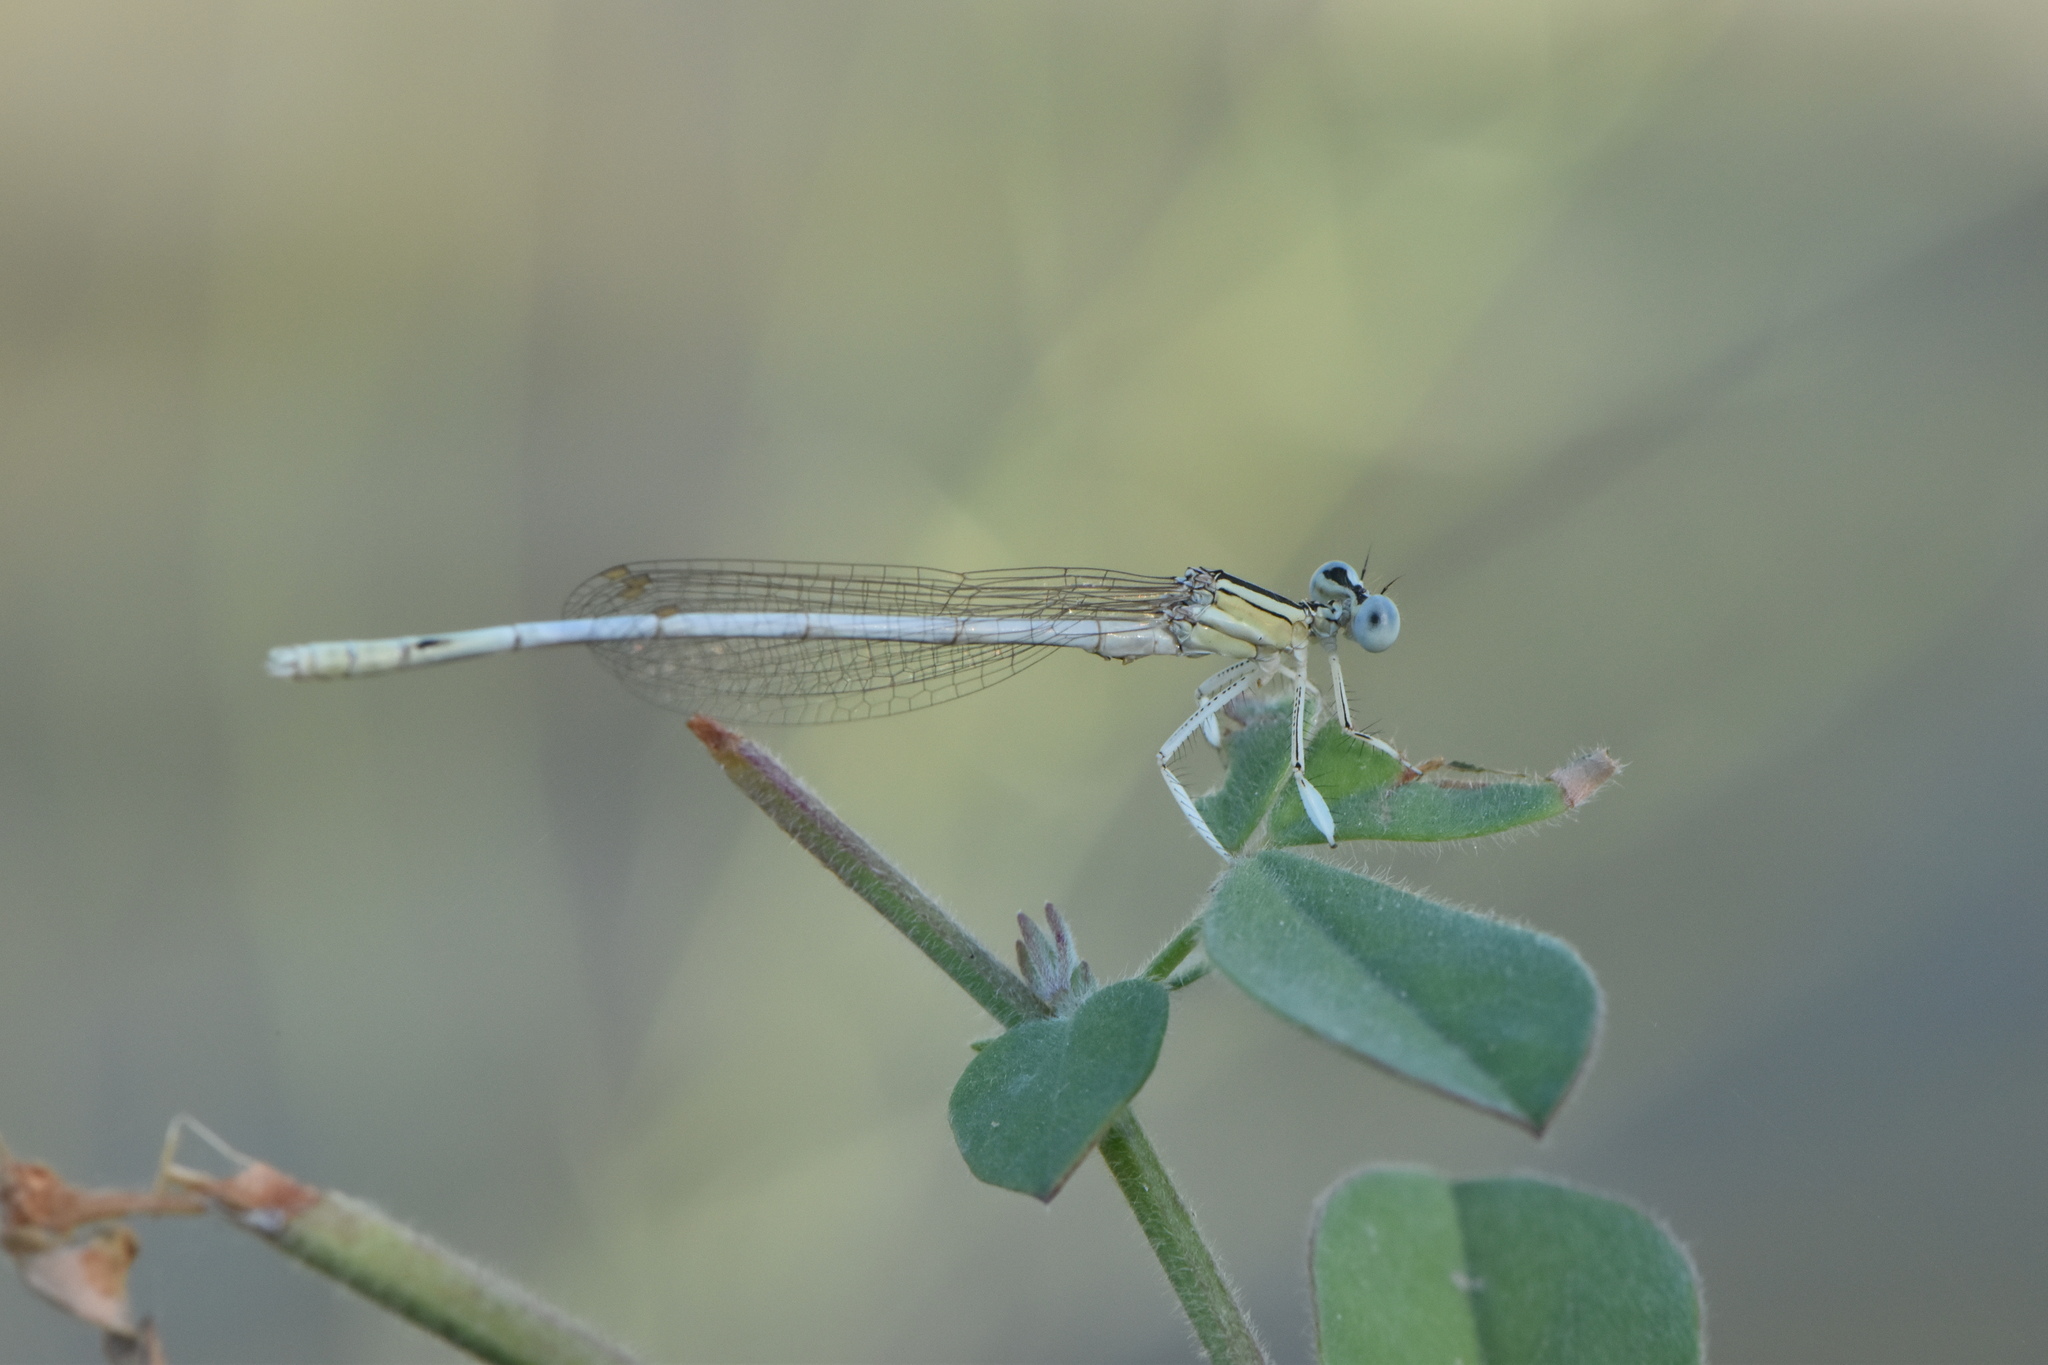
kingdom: Animalia
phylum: Arthropoda
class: Insecta
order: Odonata
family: Platycnemididae
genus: Platycnemis
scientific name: Platycnemis latipes
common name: White featherleg
